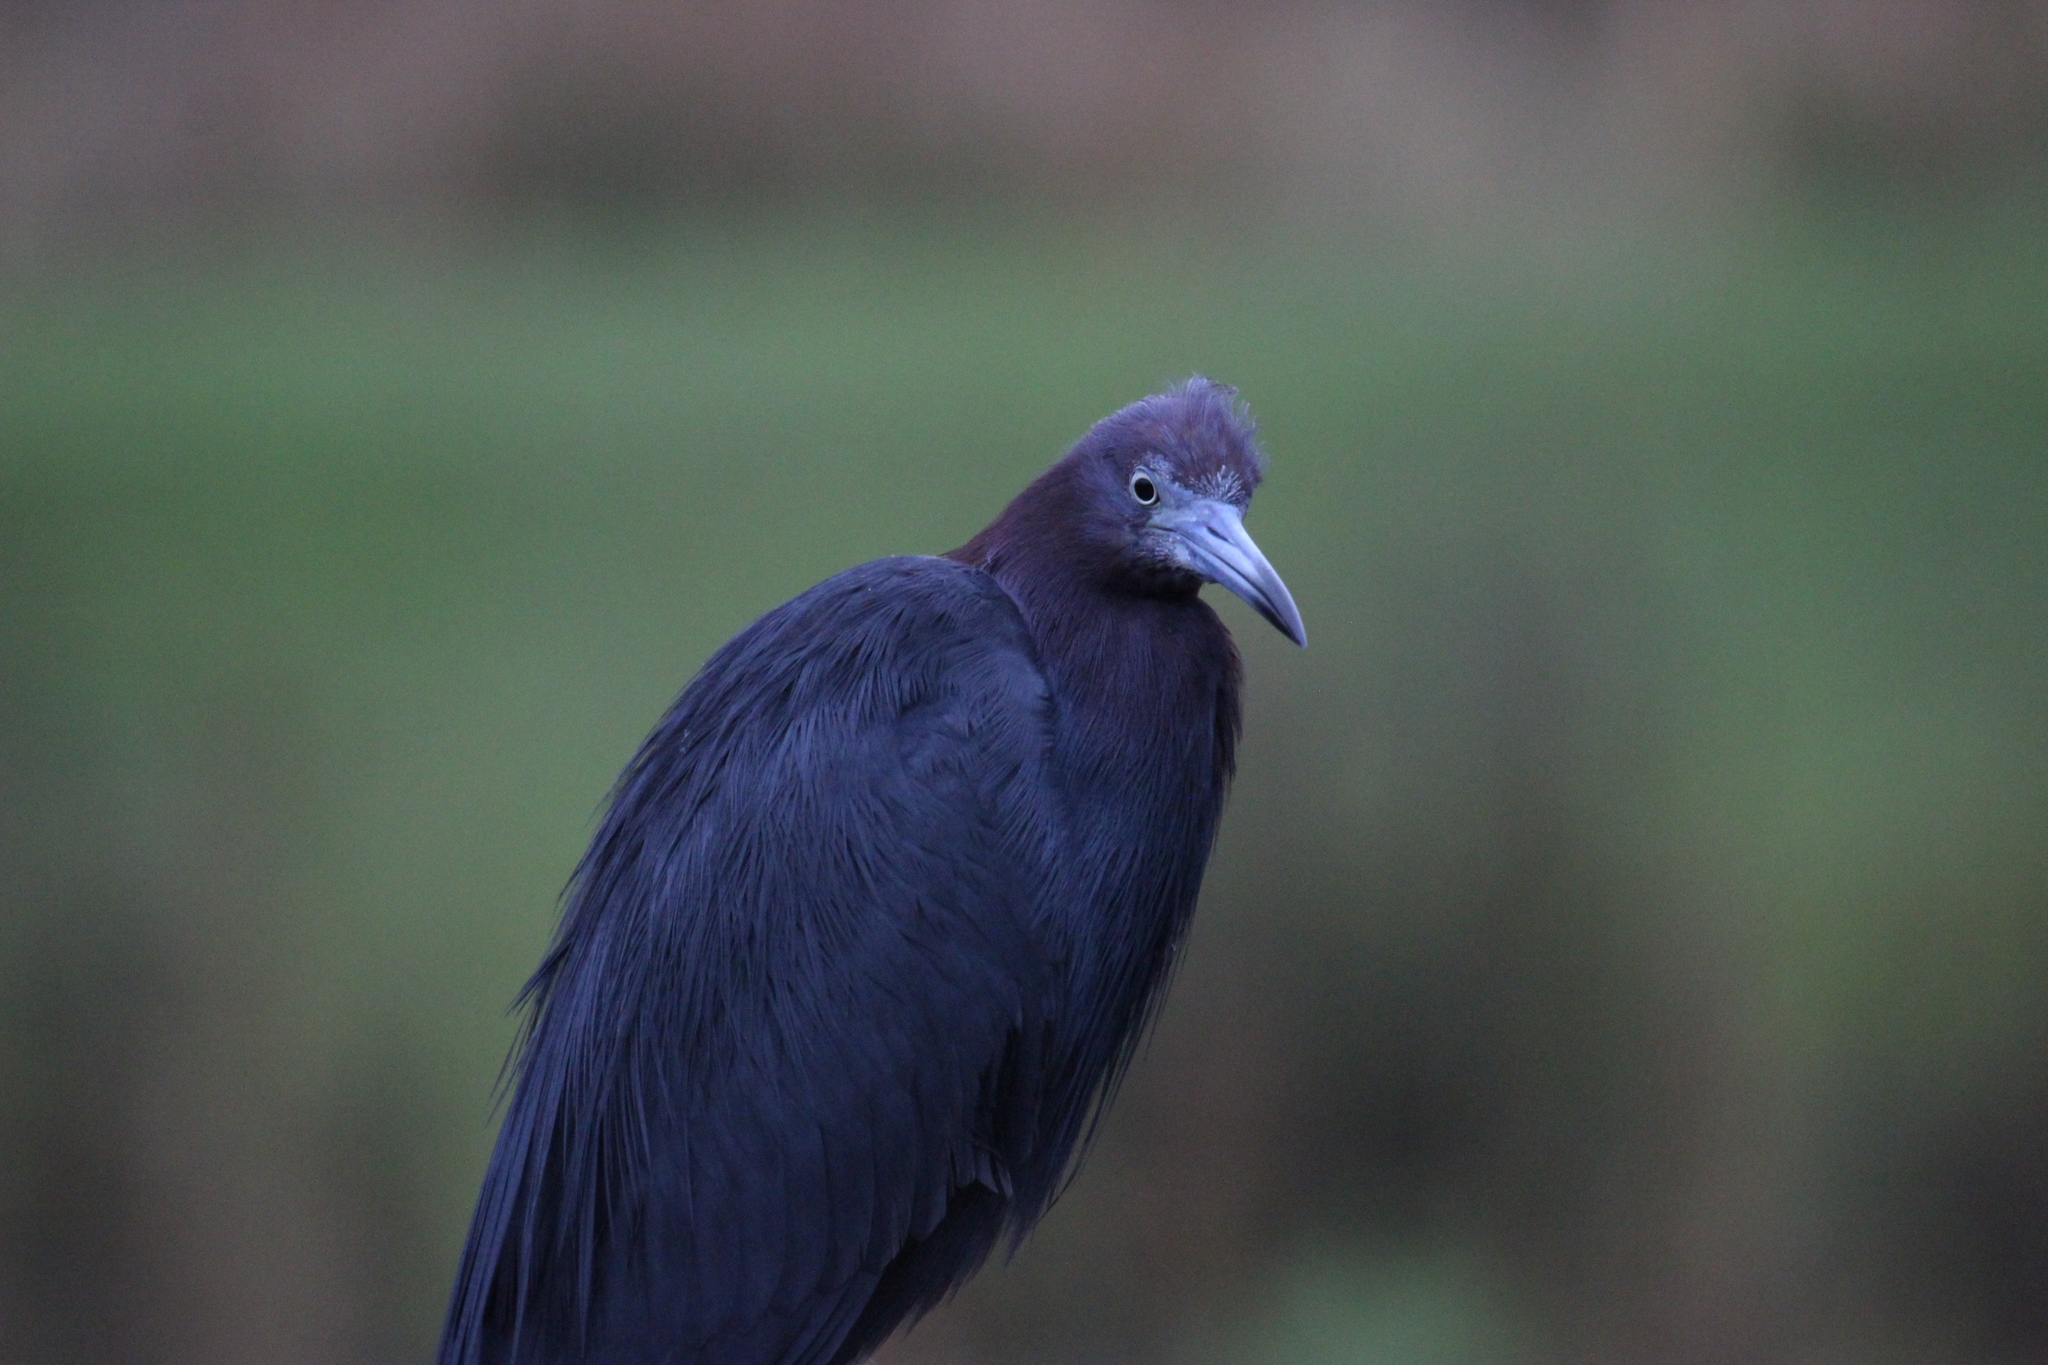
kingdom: Animalia
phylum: Chordata
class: Aves
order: Pelecaniformes
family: Ardeidae
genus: Egretta
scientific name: Egretta caerulea
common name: Little blue heron
